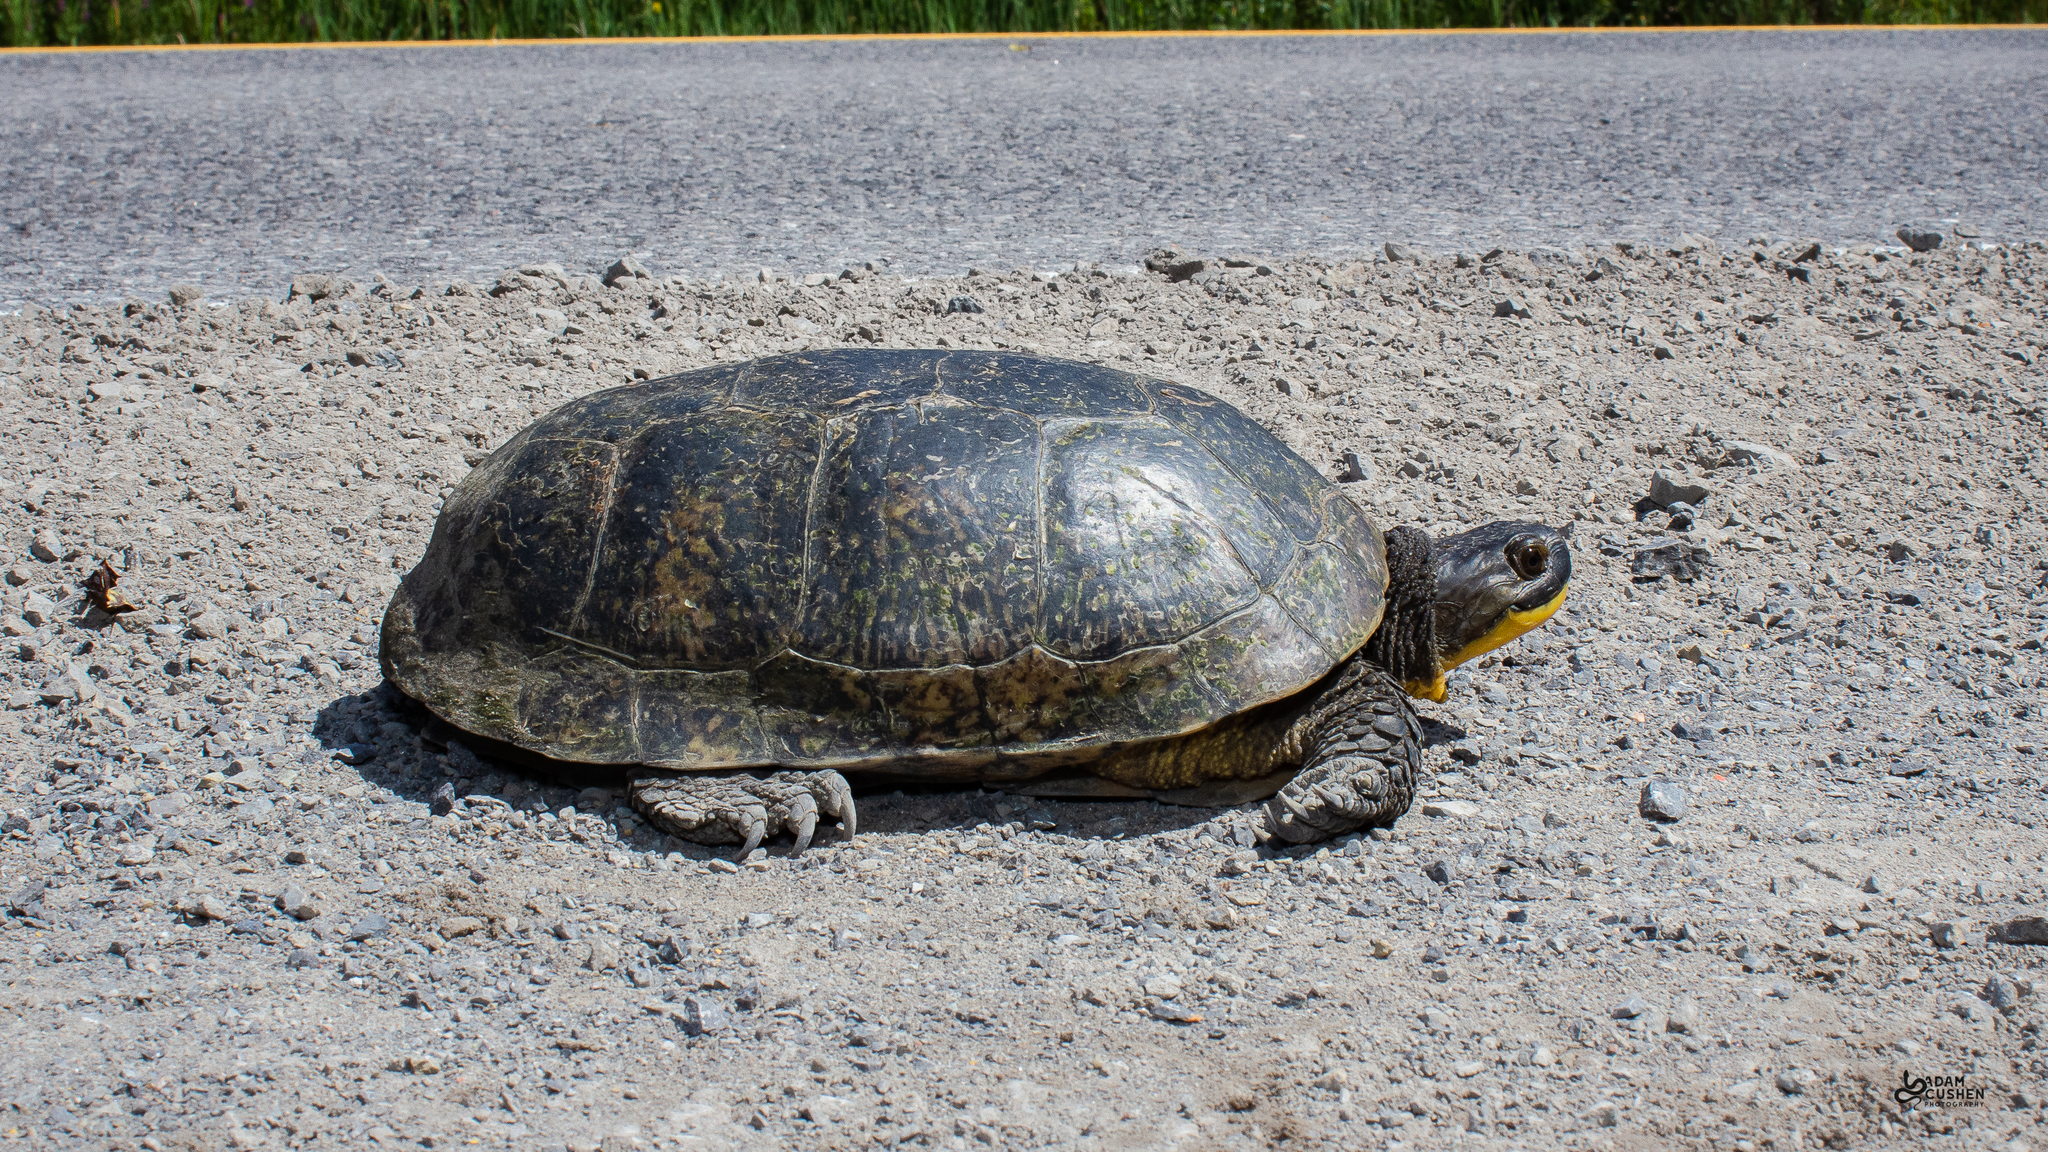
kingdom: Animalia
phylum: Chordata
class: Testudines
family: Emydidae
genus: Emys
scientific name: Emys blandingii
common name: Blanding's turtle
